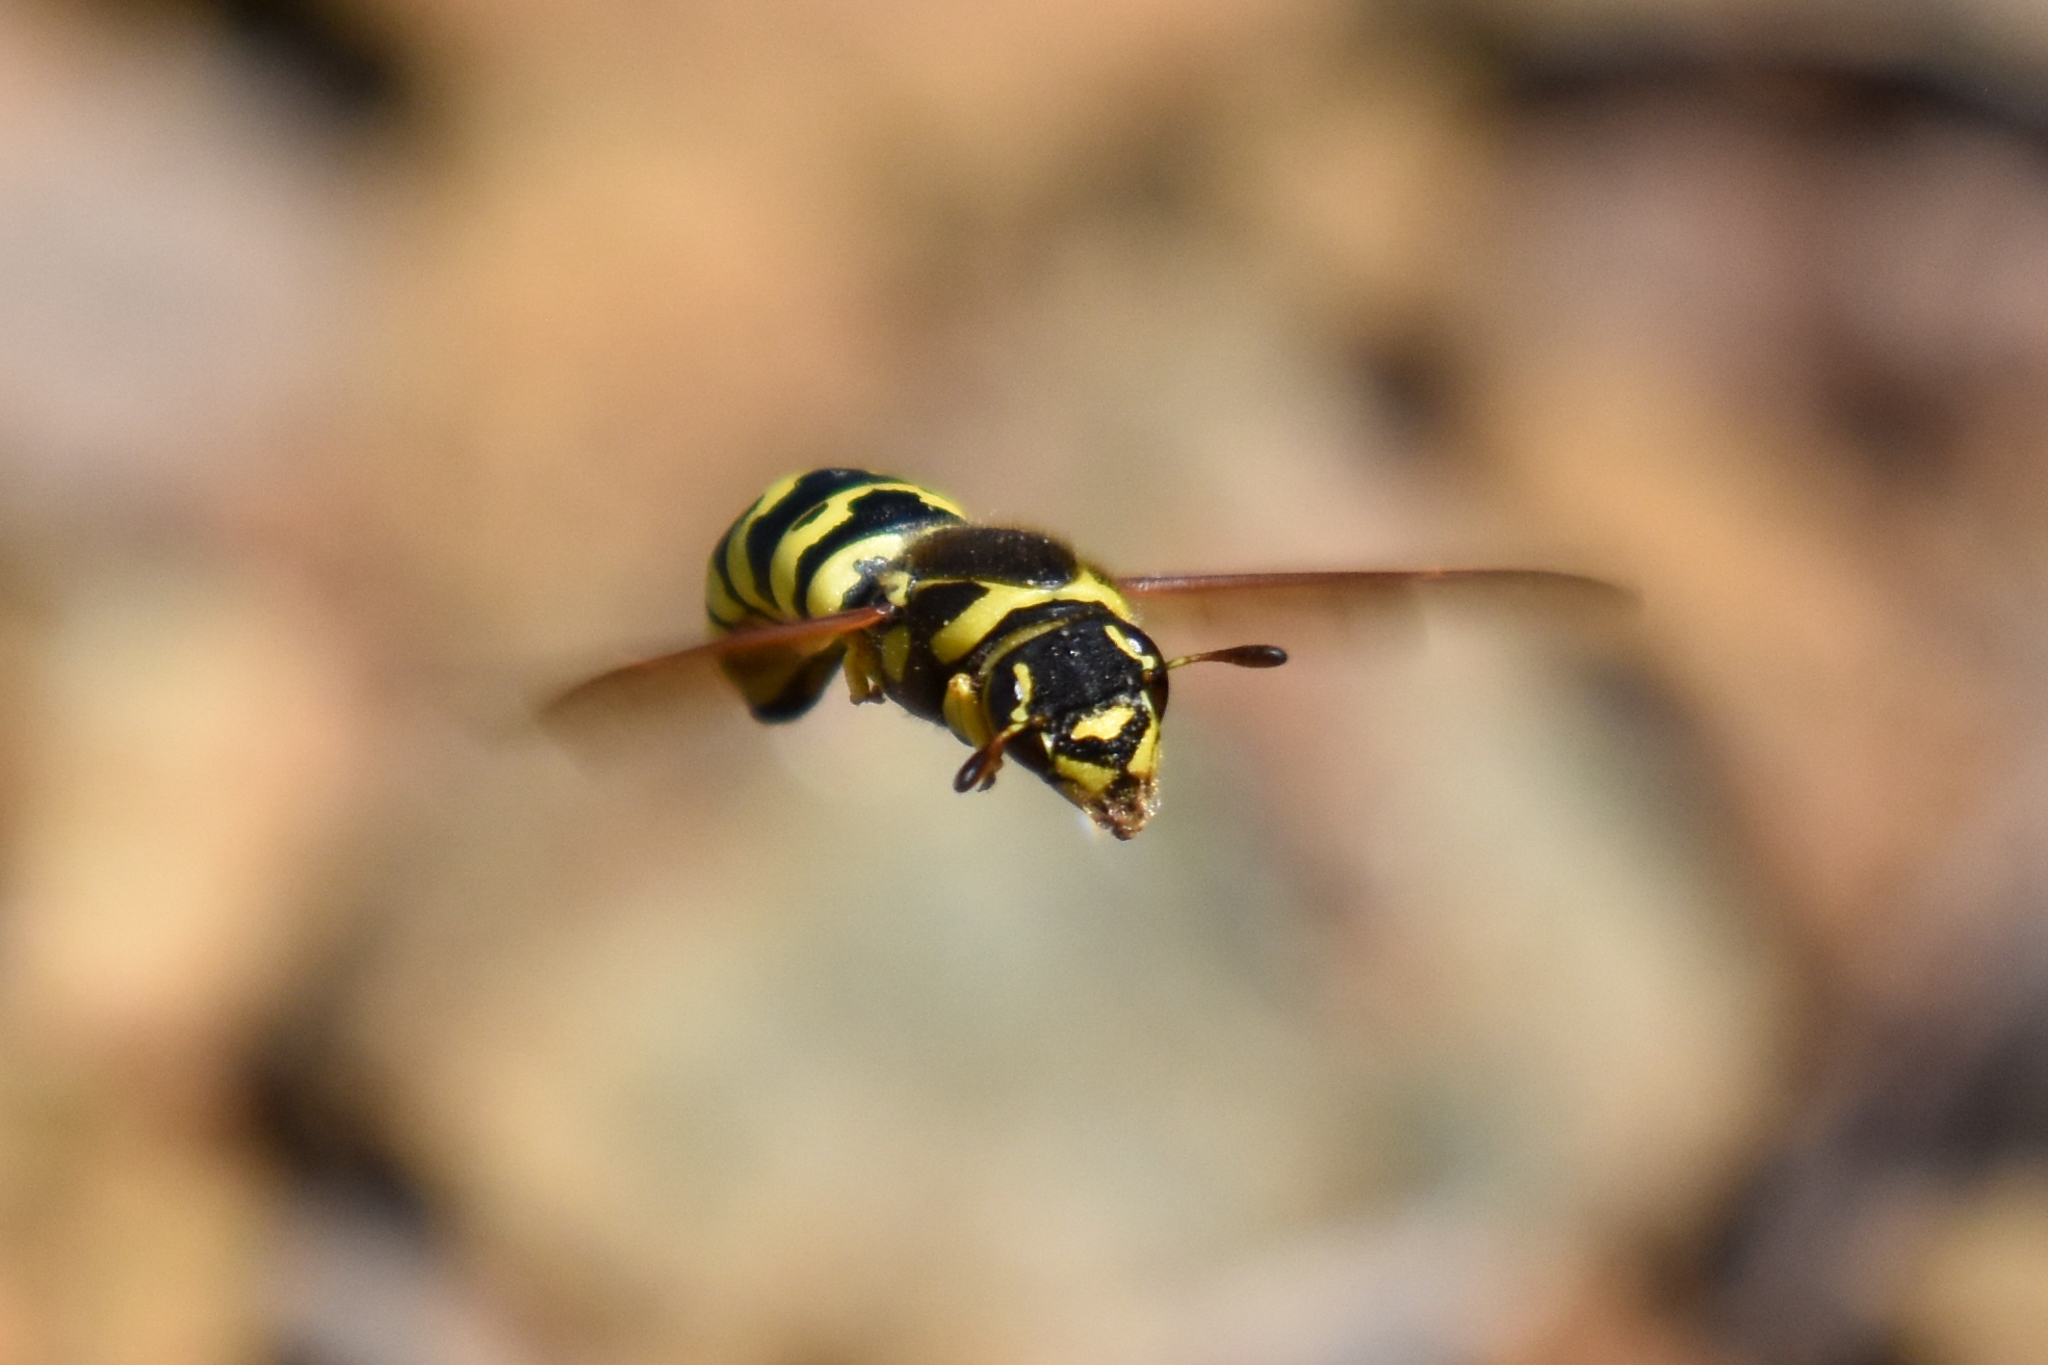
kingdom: Animalia
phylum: Arthropoda
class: Insecta
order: Hymenoptera
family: Masaridae
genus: Pseudomasaris
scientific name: Pseudomasaris vespoides
